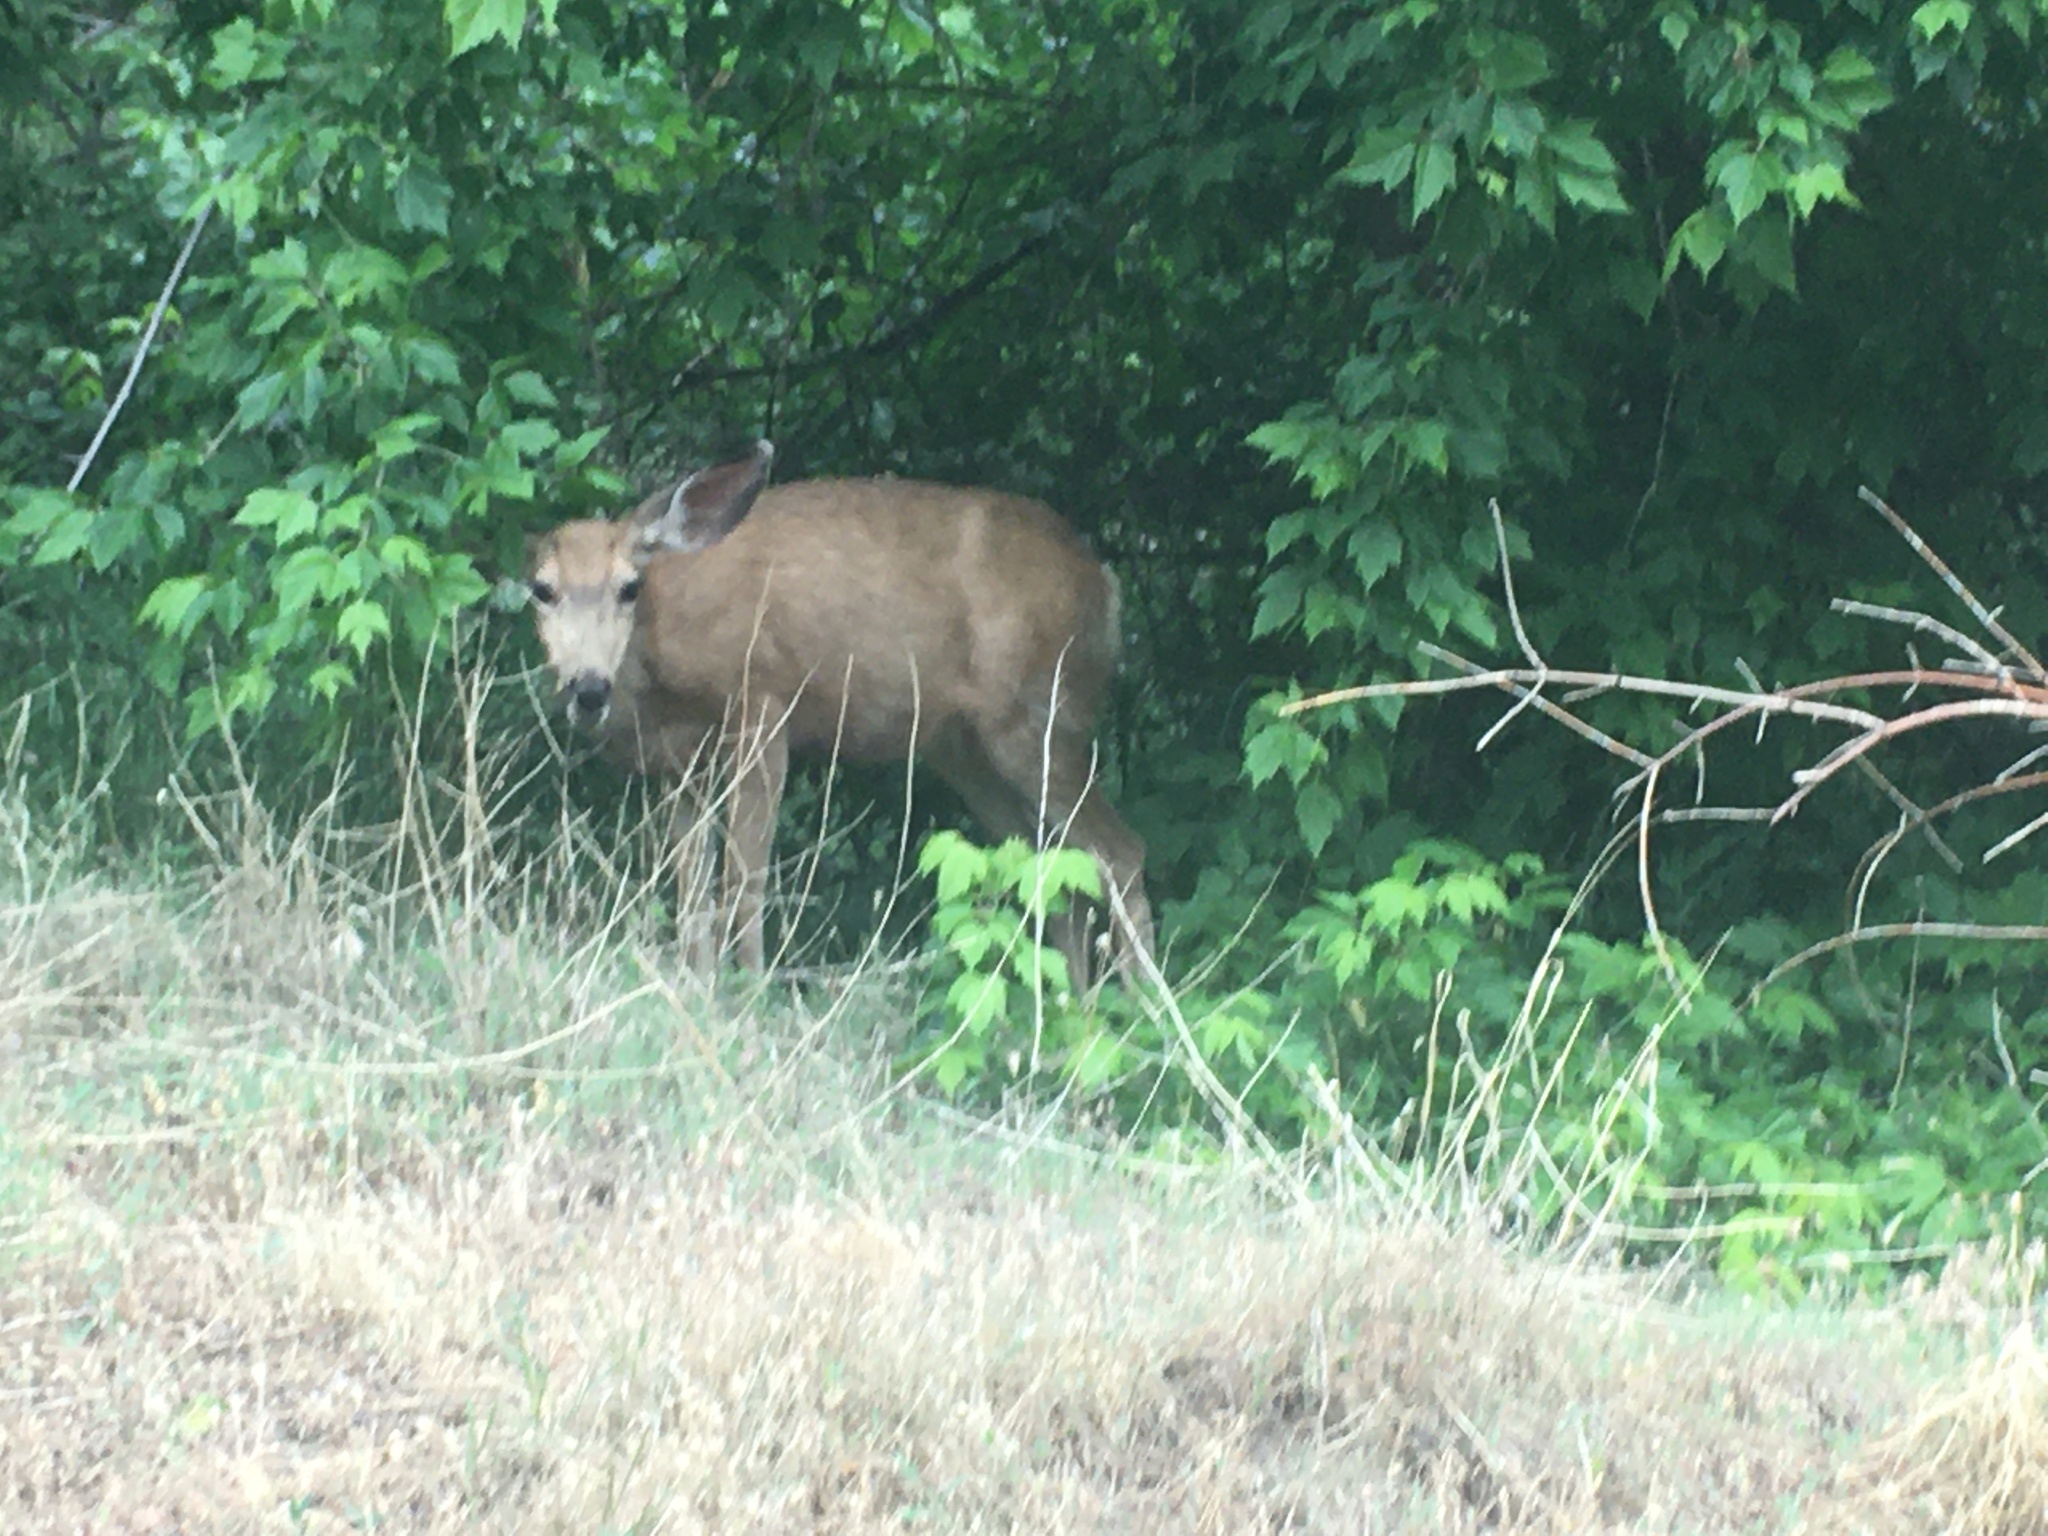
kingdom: Animalia
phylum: Chordata
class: Mammalia
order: Artiodactyla
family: Cervidae
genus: Odocoileus
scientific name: Odocoileus hemionus
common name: Mule deer
